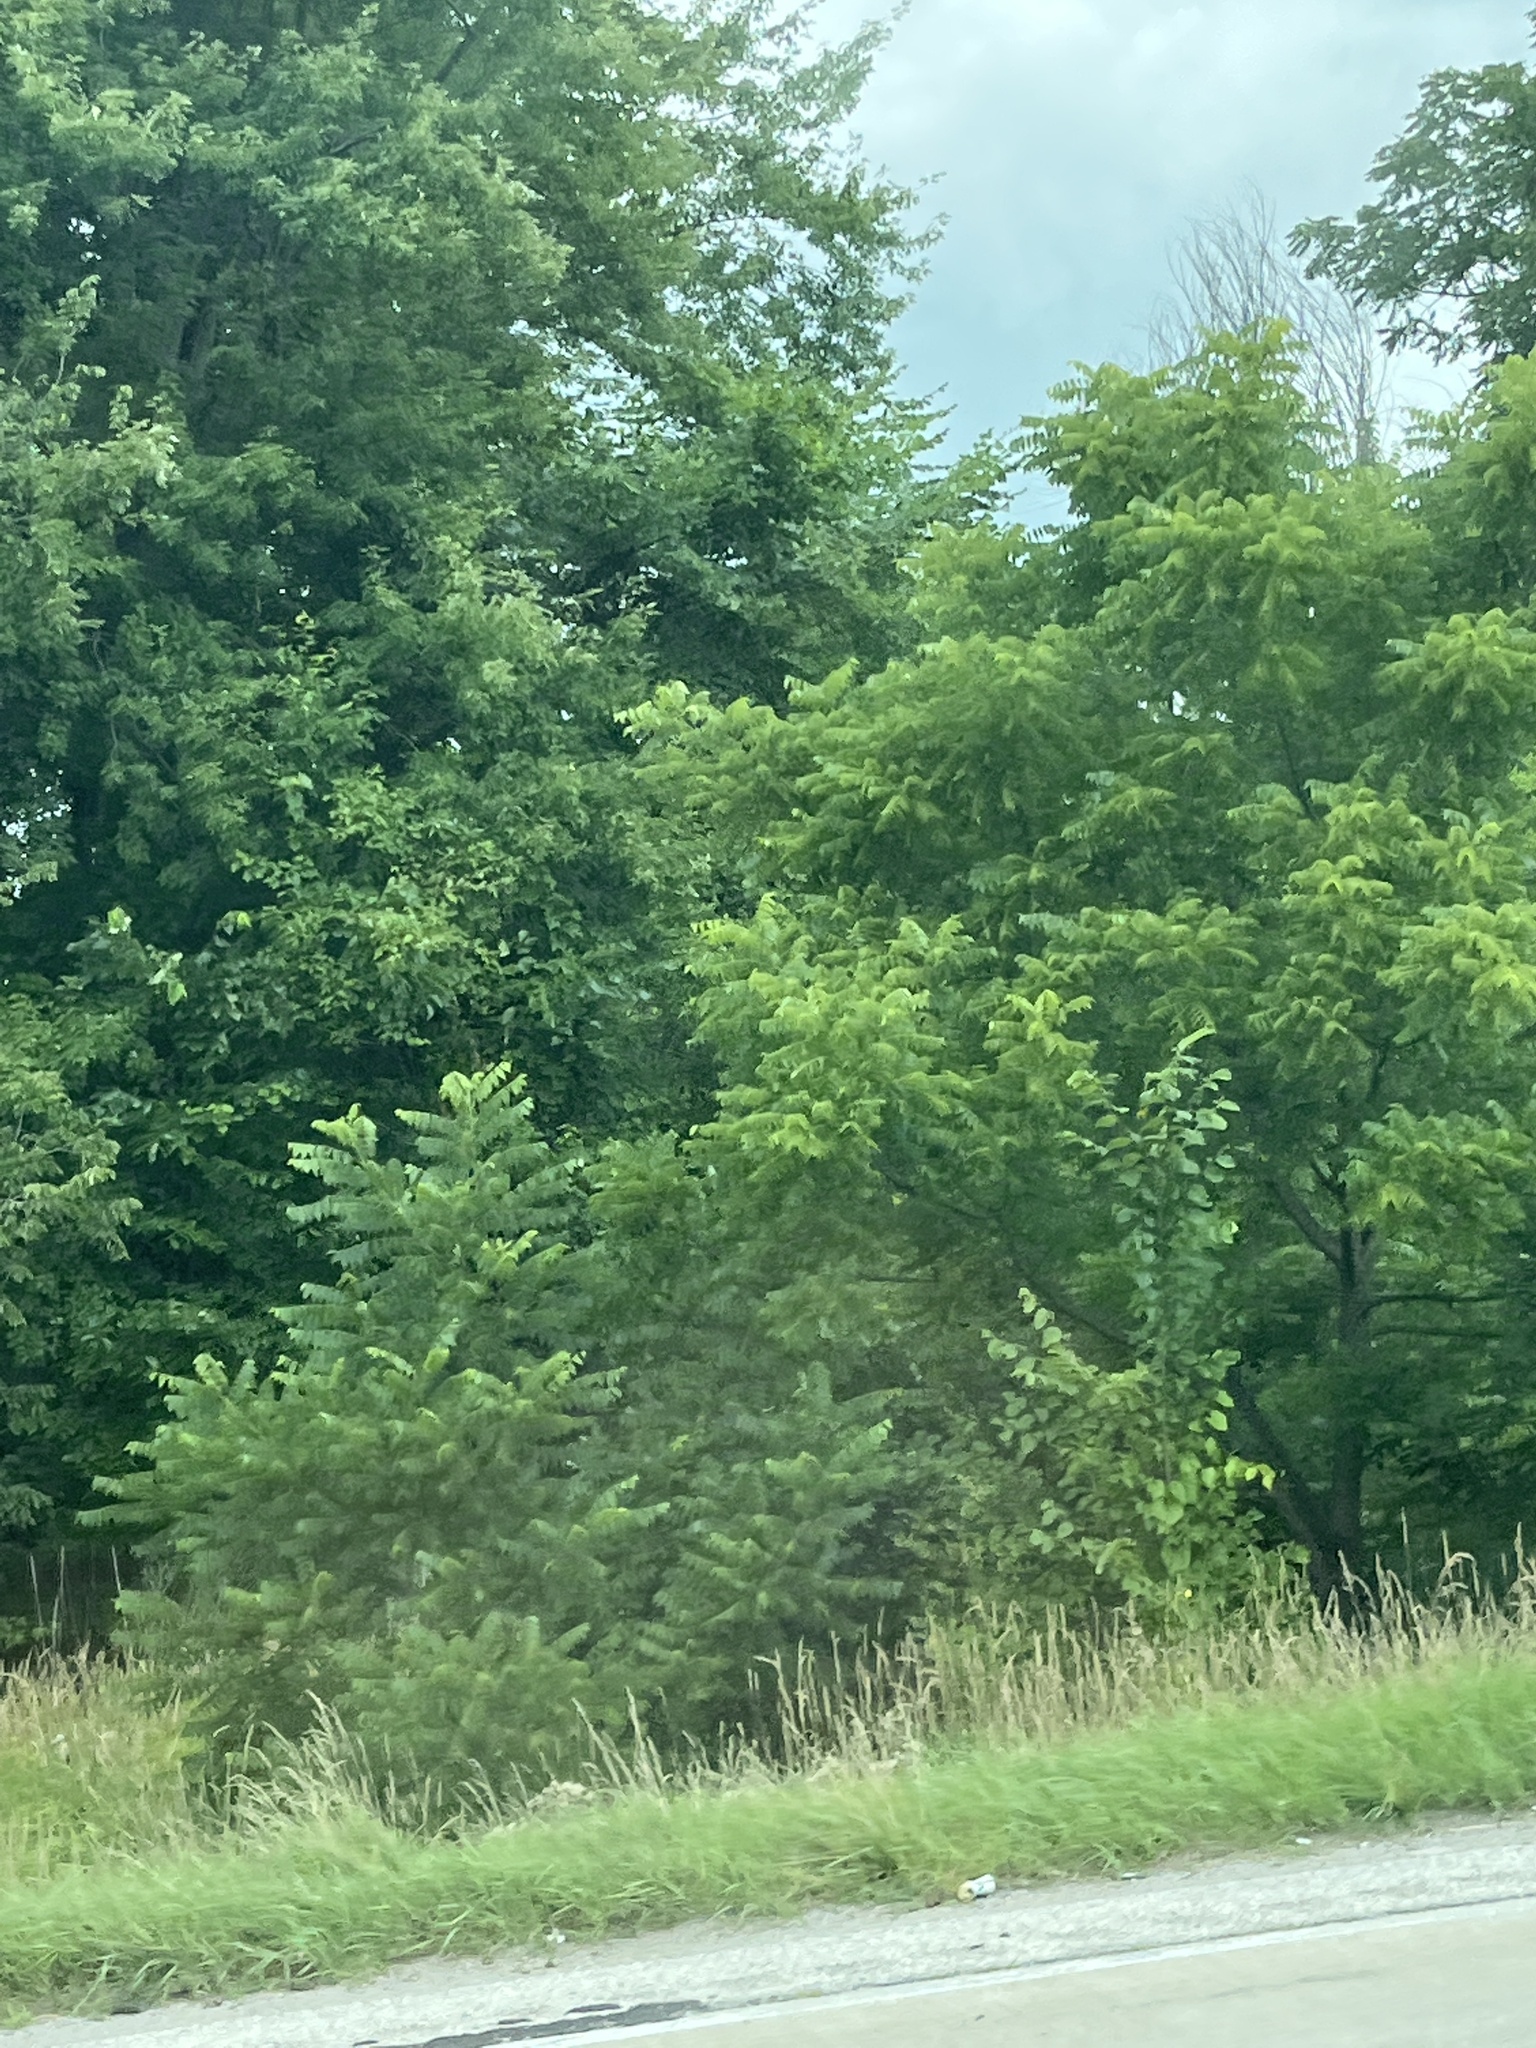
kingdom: Plantae
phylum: Tracheophyta
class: Magnoliopsida
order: Sapindales
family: Simaroubaceae
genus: Ailanthus
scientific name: Ailanthus altissima
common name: Tree-of-heaven
